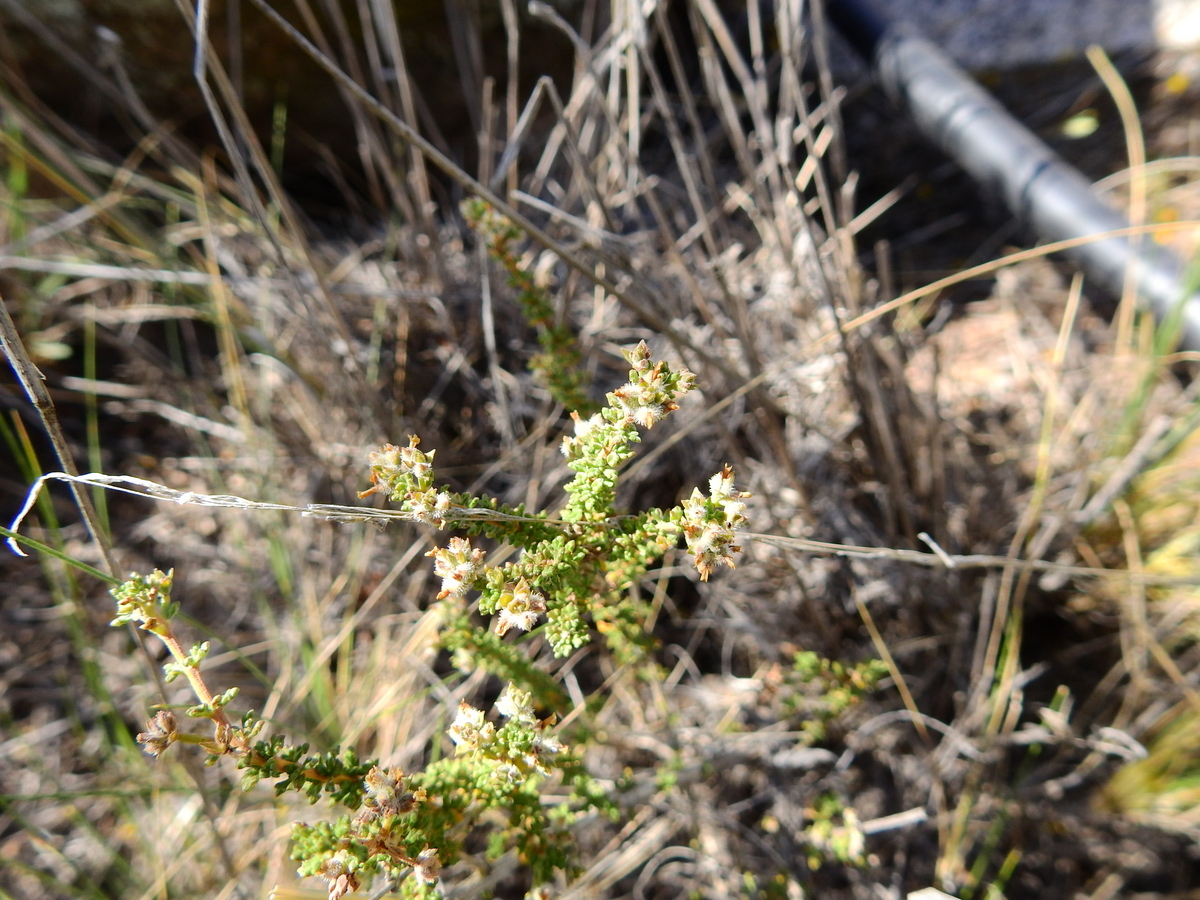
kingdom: Plantae
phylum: Tracheophyta
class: Magnoliopsida
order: Lamiales
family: Verbenaceae
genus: Acantholippia
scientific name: Acantholippia seriphioides
